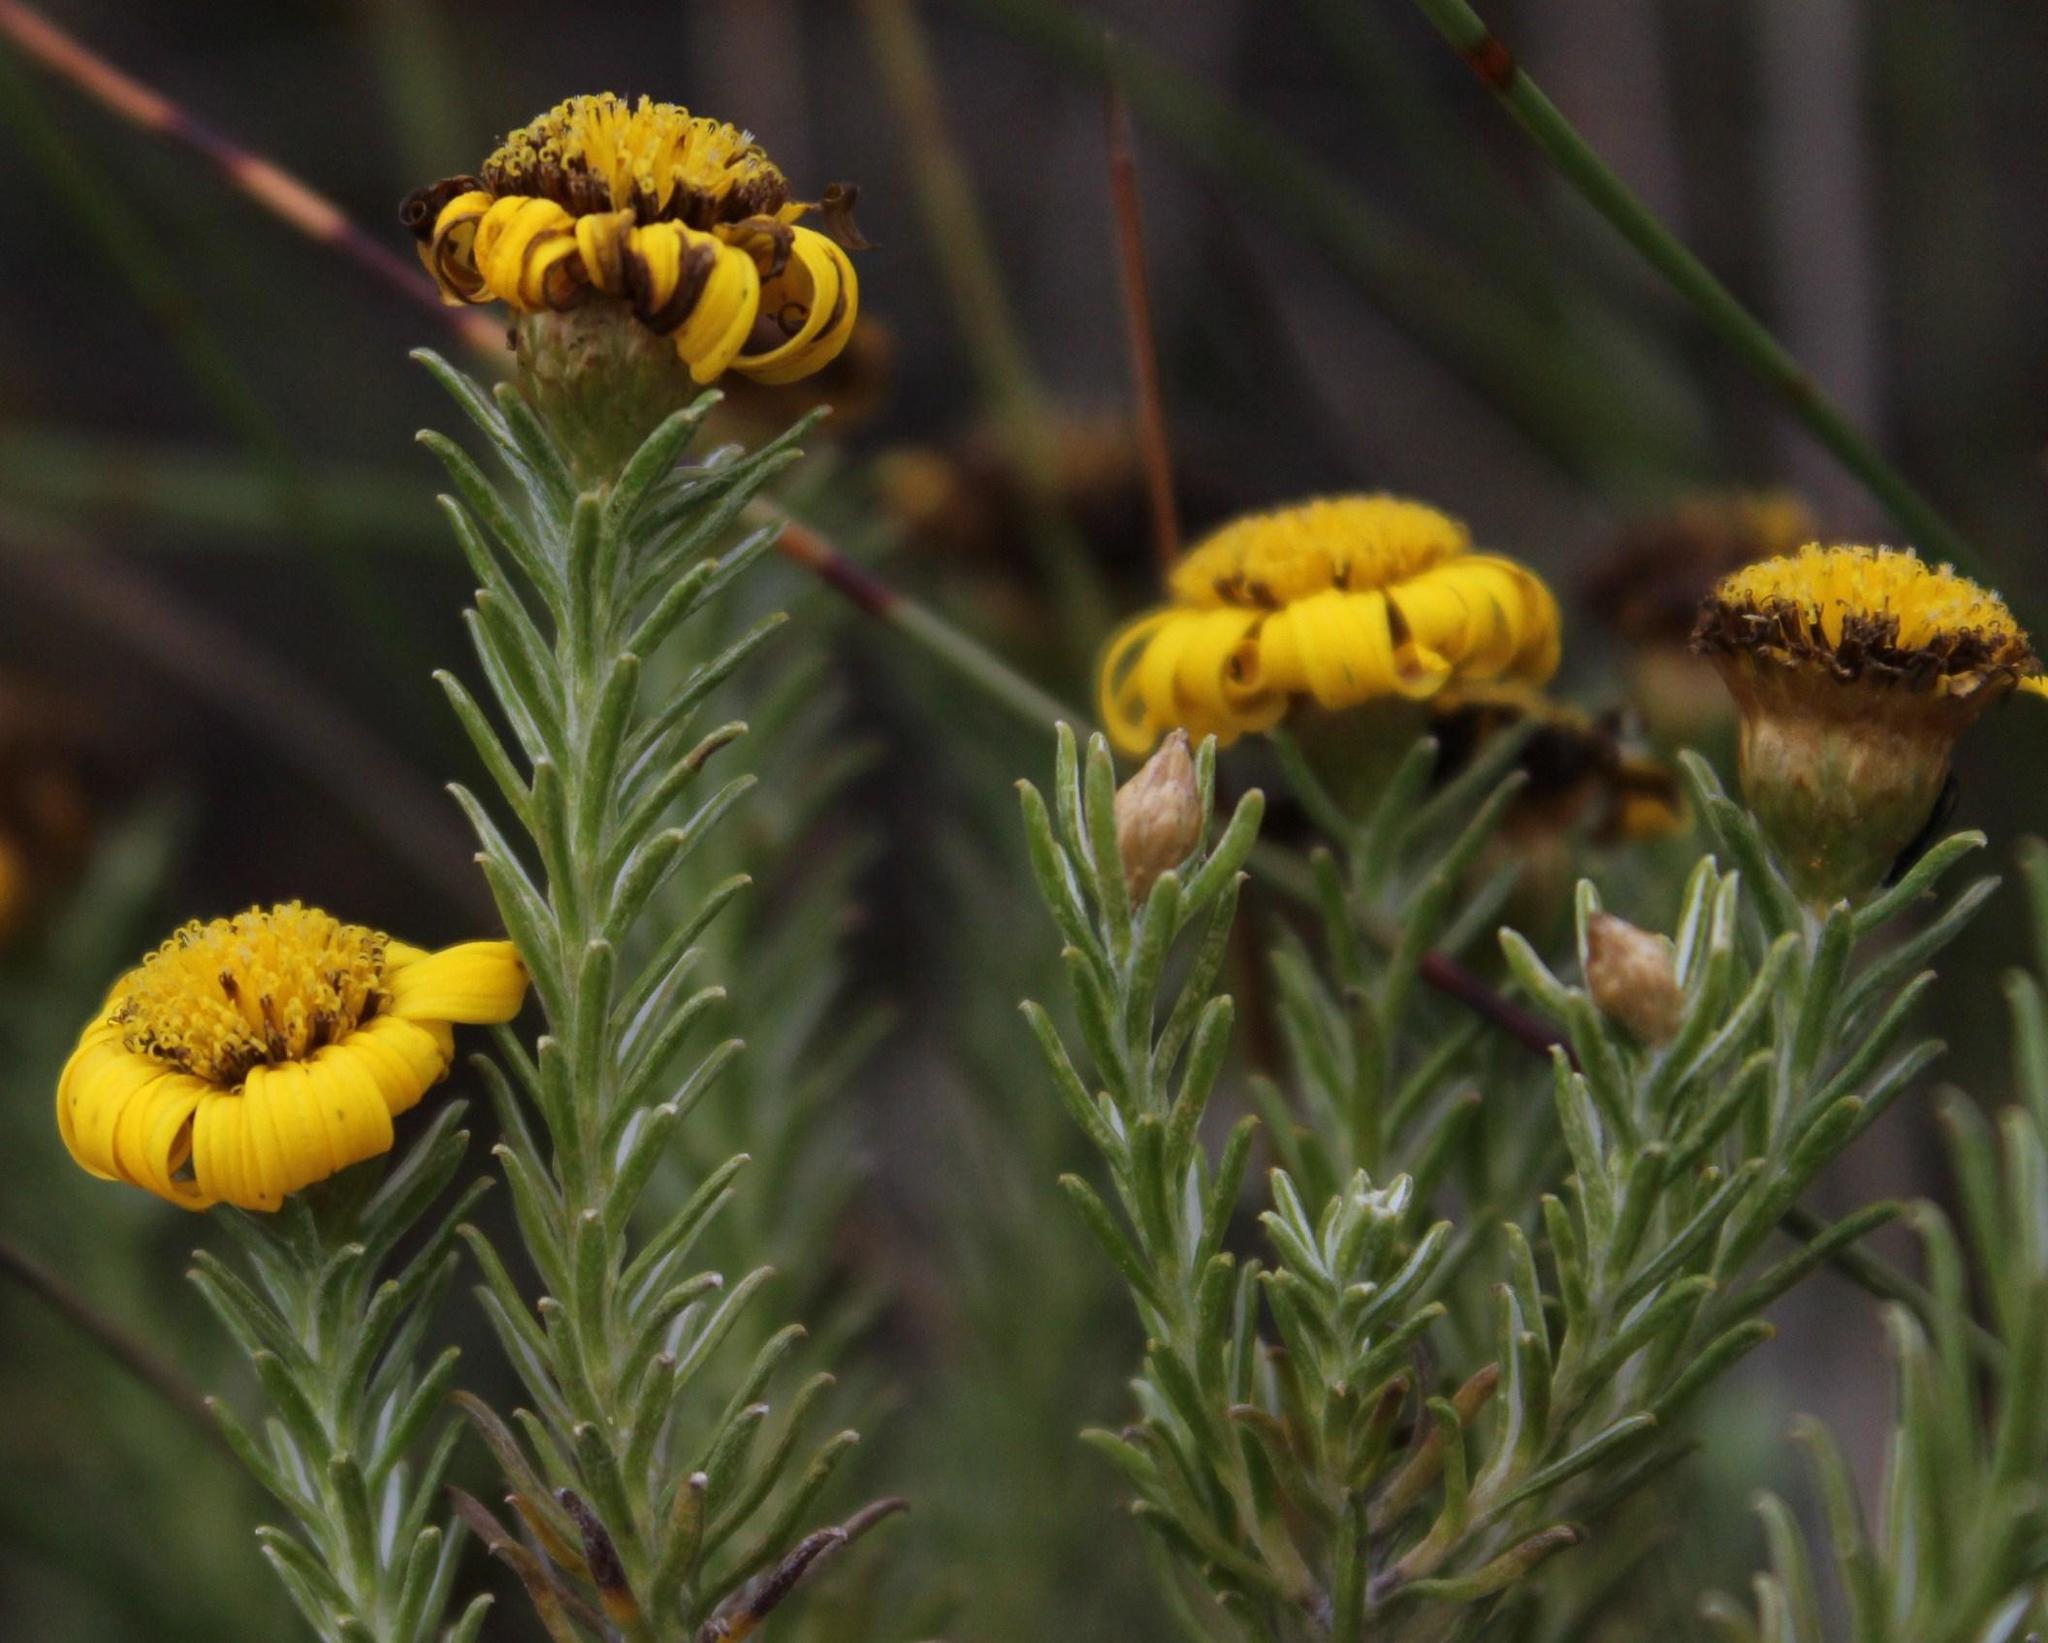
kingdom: Plantae
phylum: Tracheophyta
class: Magnoliopsida
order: Asterales
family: Asteraceae
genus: Oedera
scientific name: Oedera fruticosa
